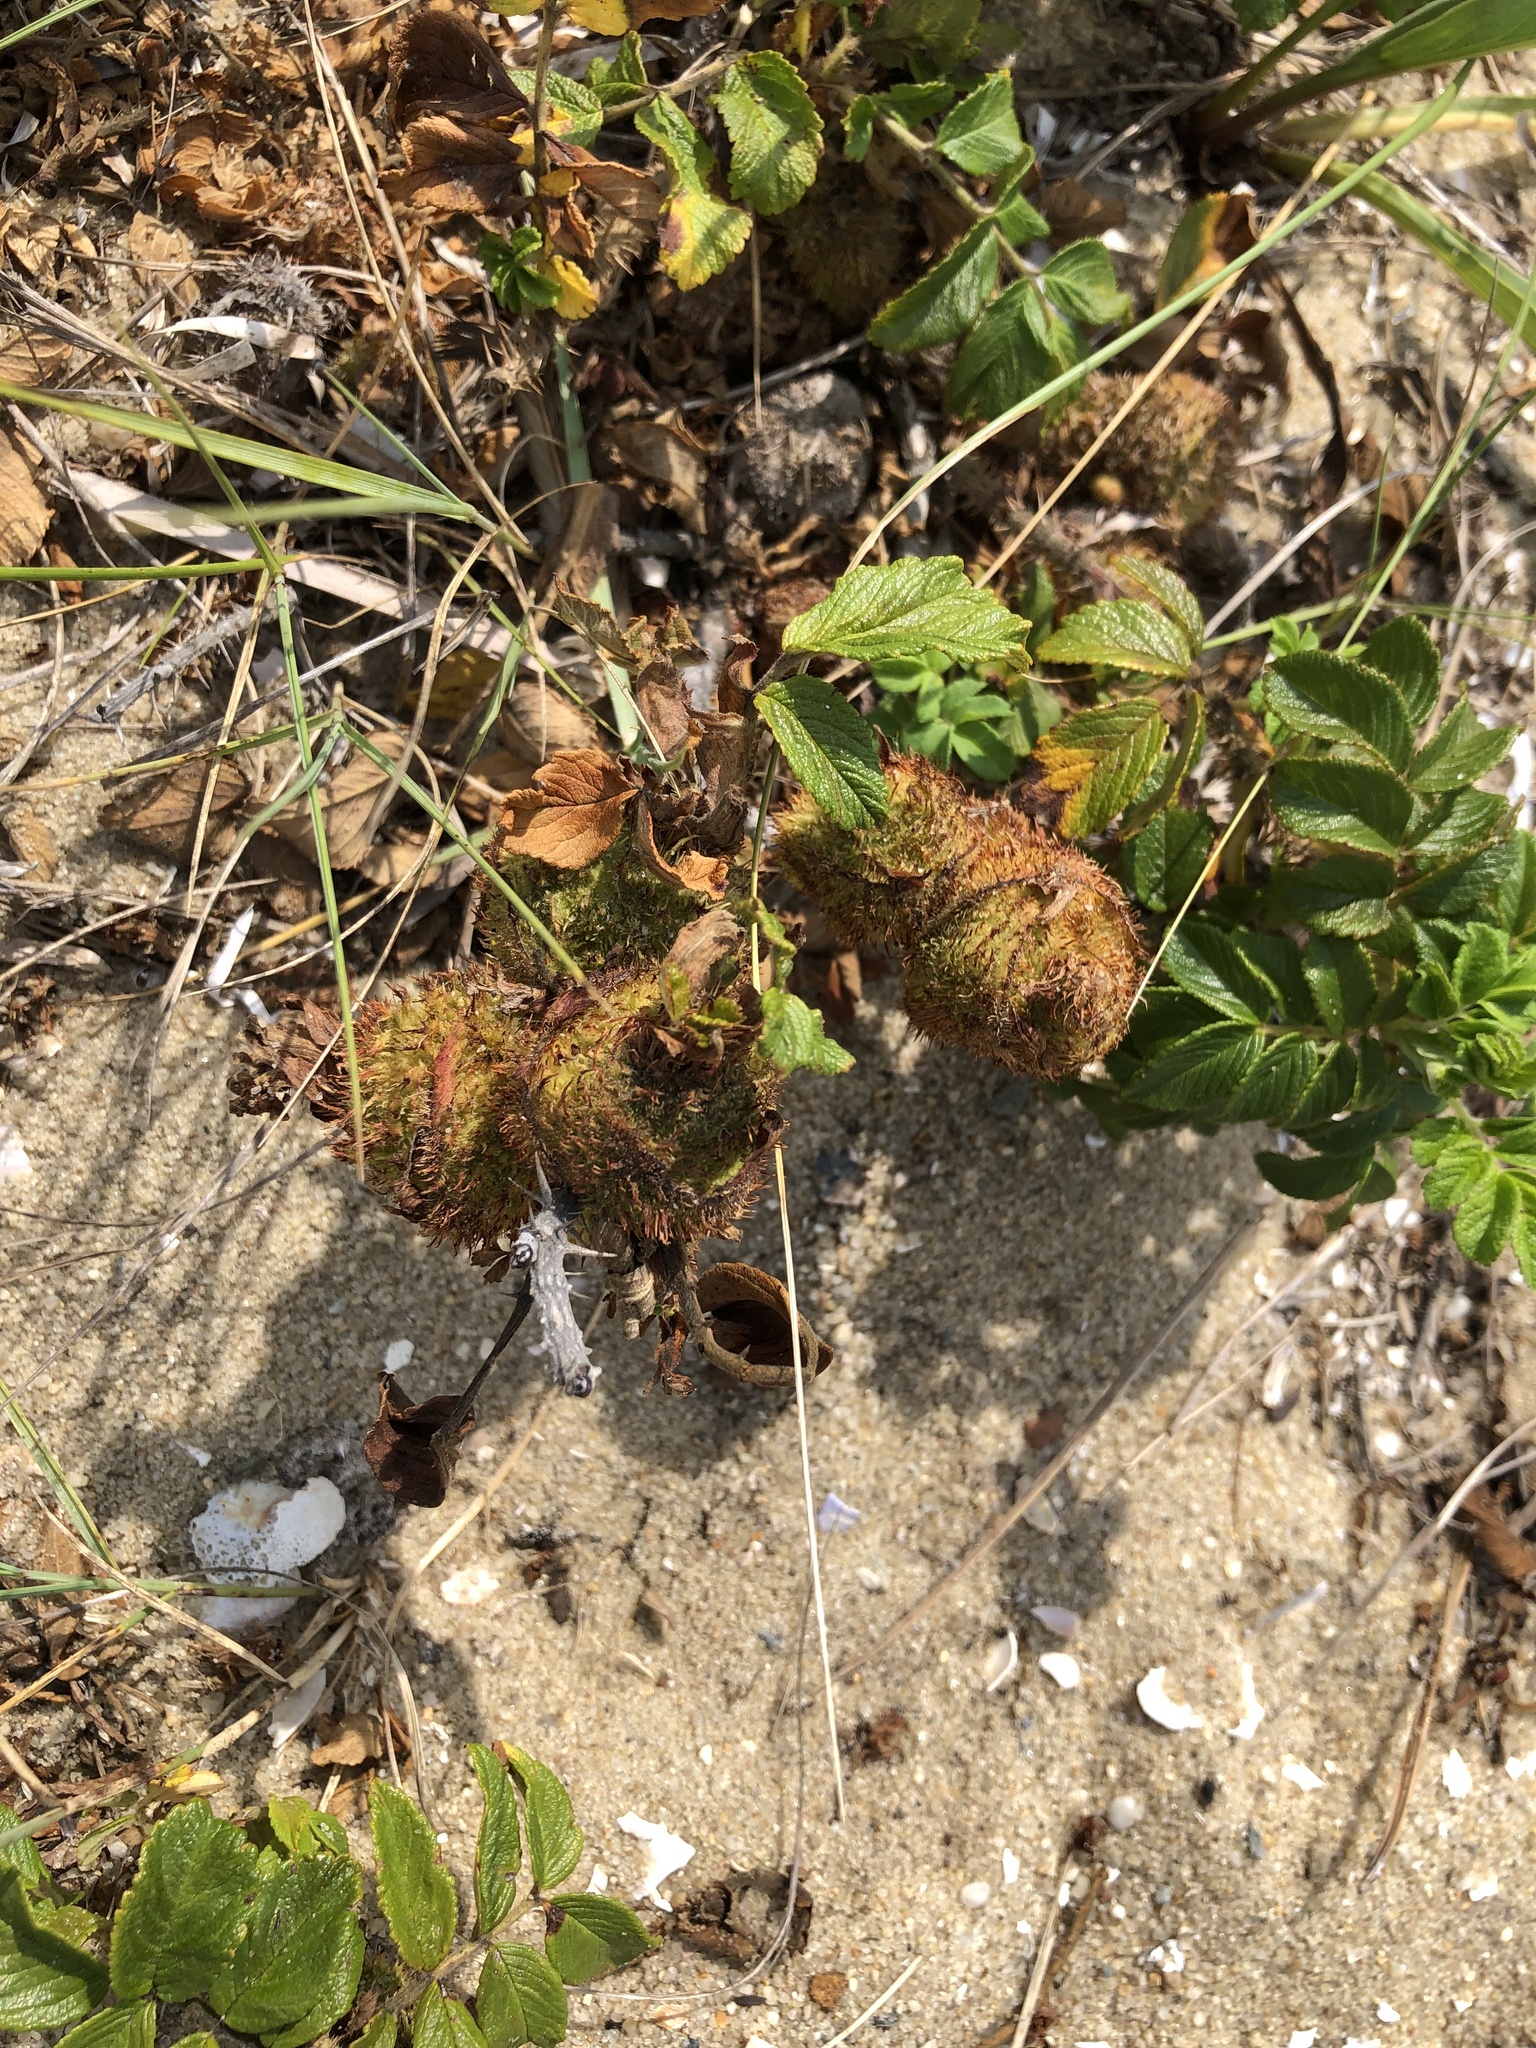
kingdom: Animalia
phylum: Arthropoda
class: Insecta
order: Hymenoptera
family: Cynipidae
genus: Diplolepis
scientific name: Diplolepis spinosa
